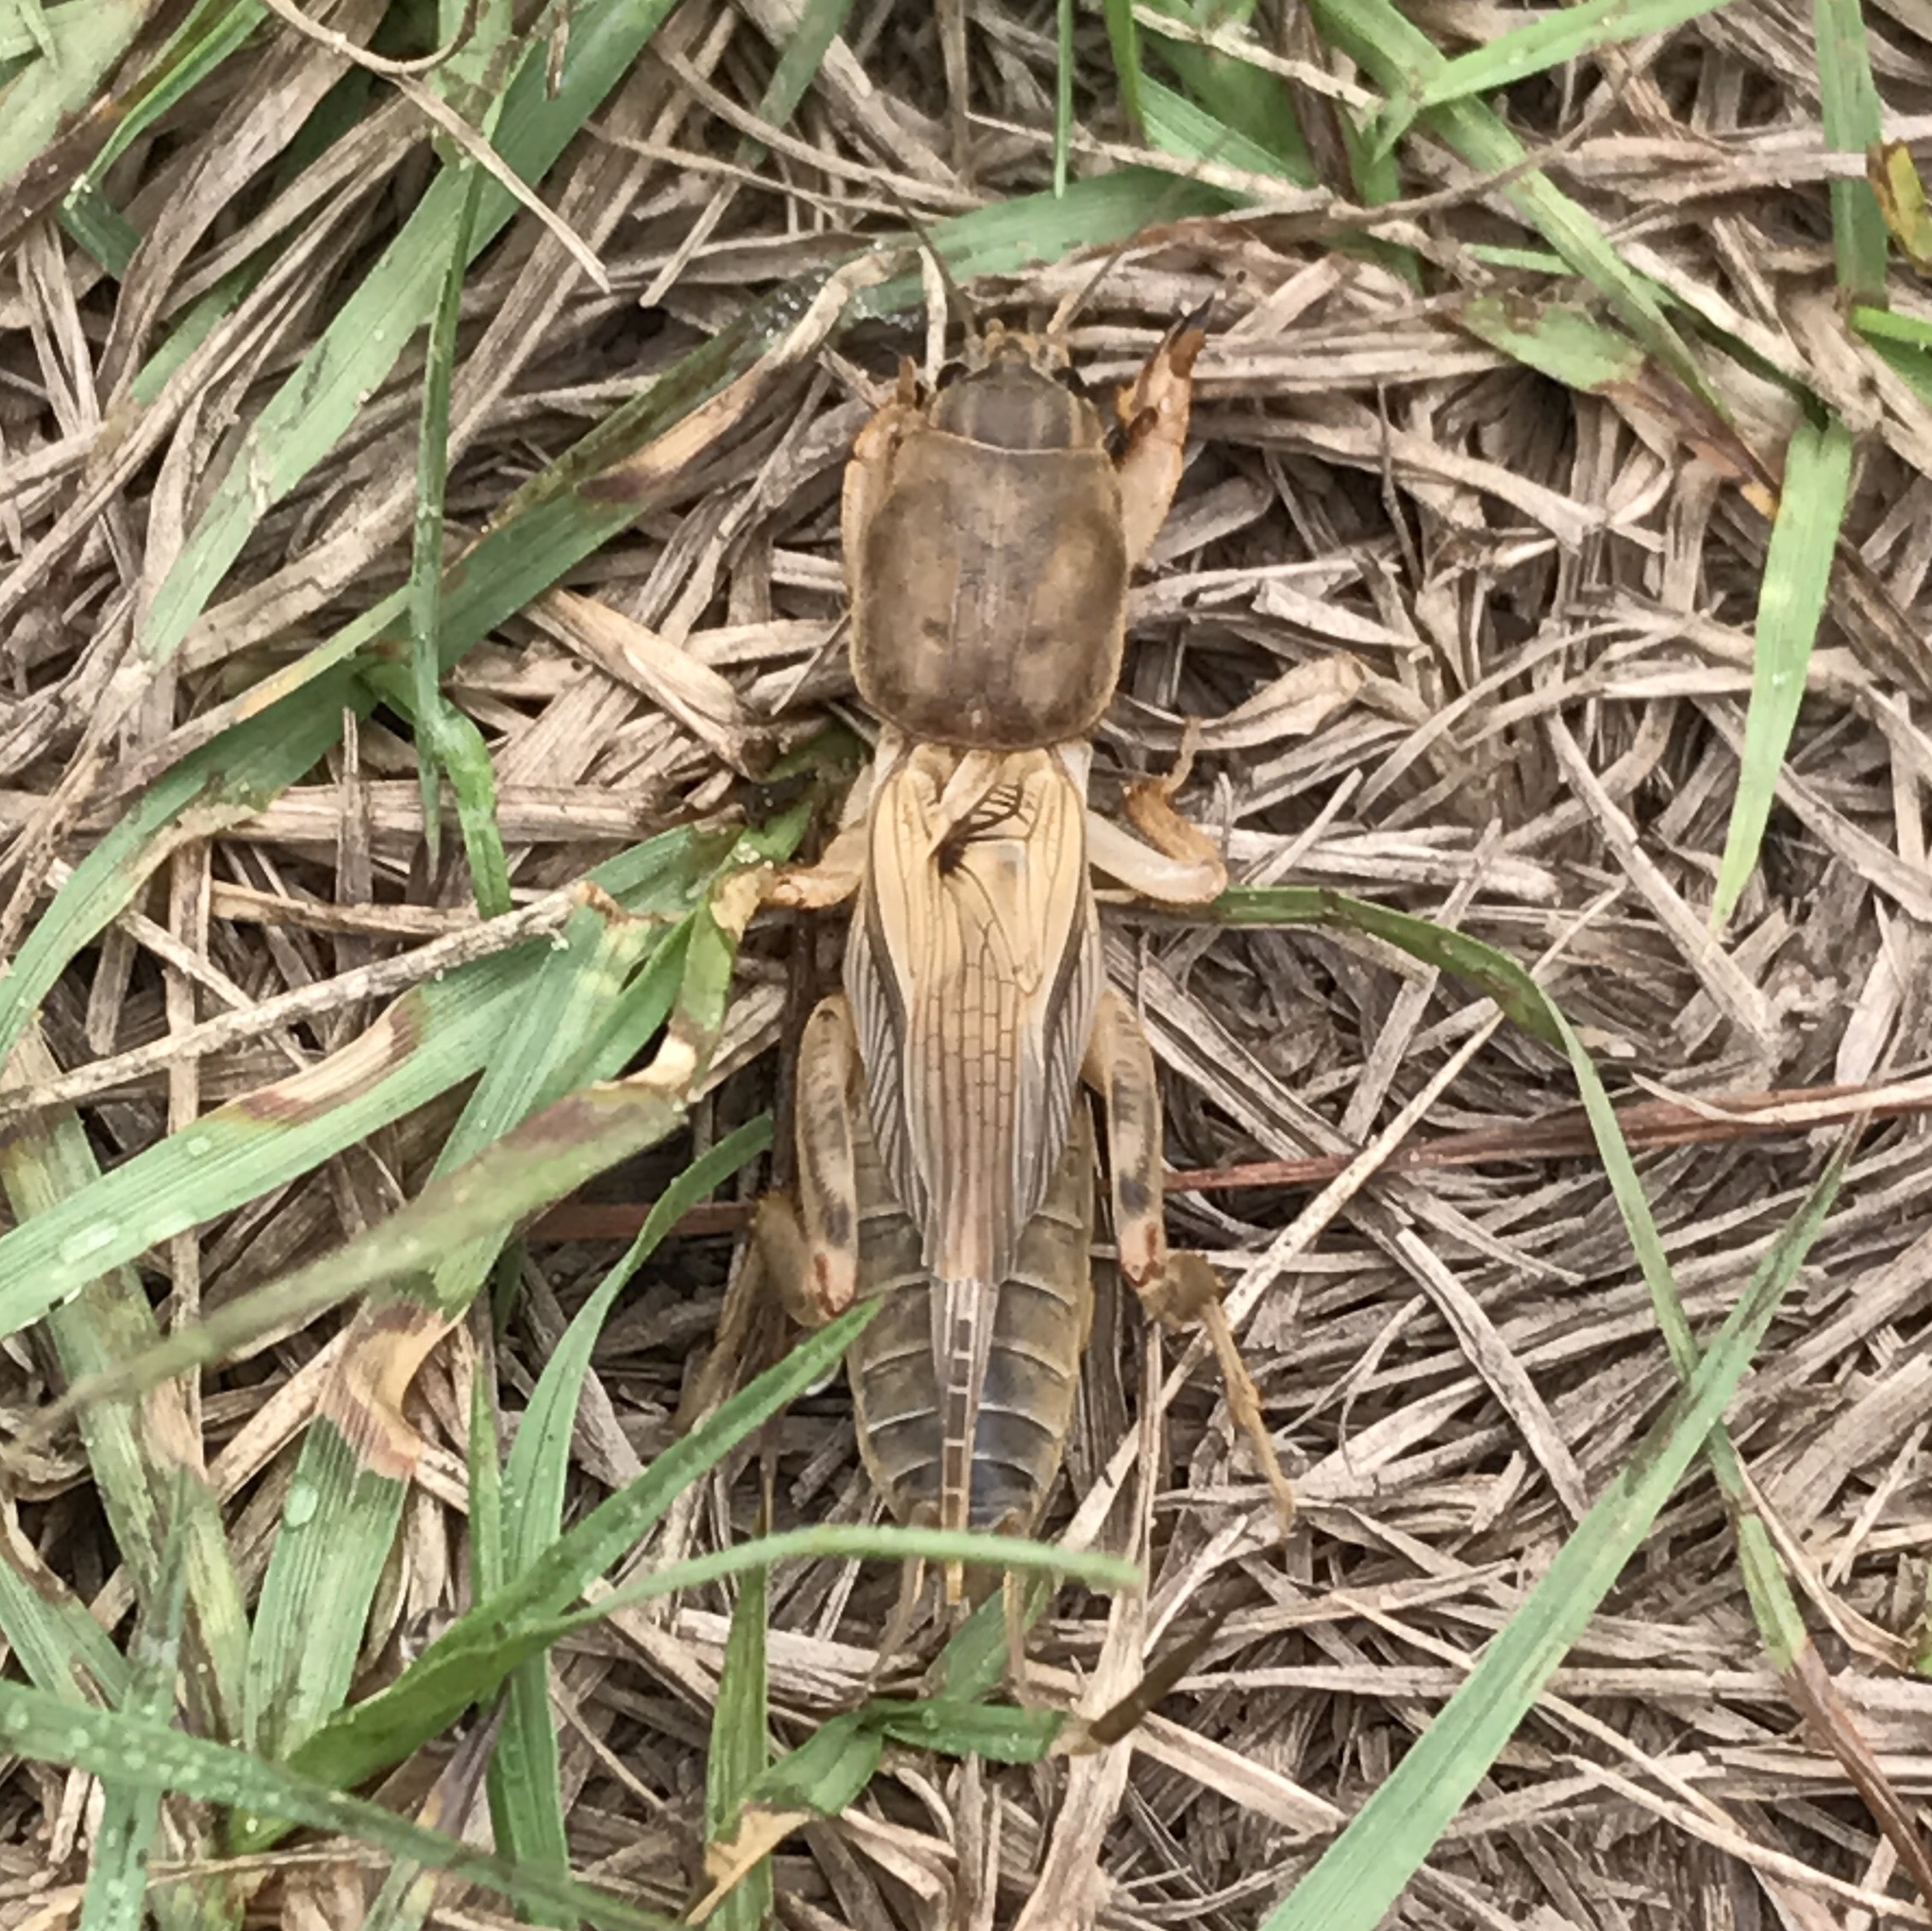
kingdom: Animalia
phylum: Arthropoda
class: Insecta
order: Orthoptera
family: Gryllotalpidae
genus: Neoscapteriscus
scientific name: Neoscapteriscus vicinus
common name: Tawny mole cricket
